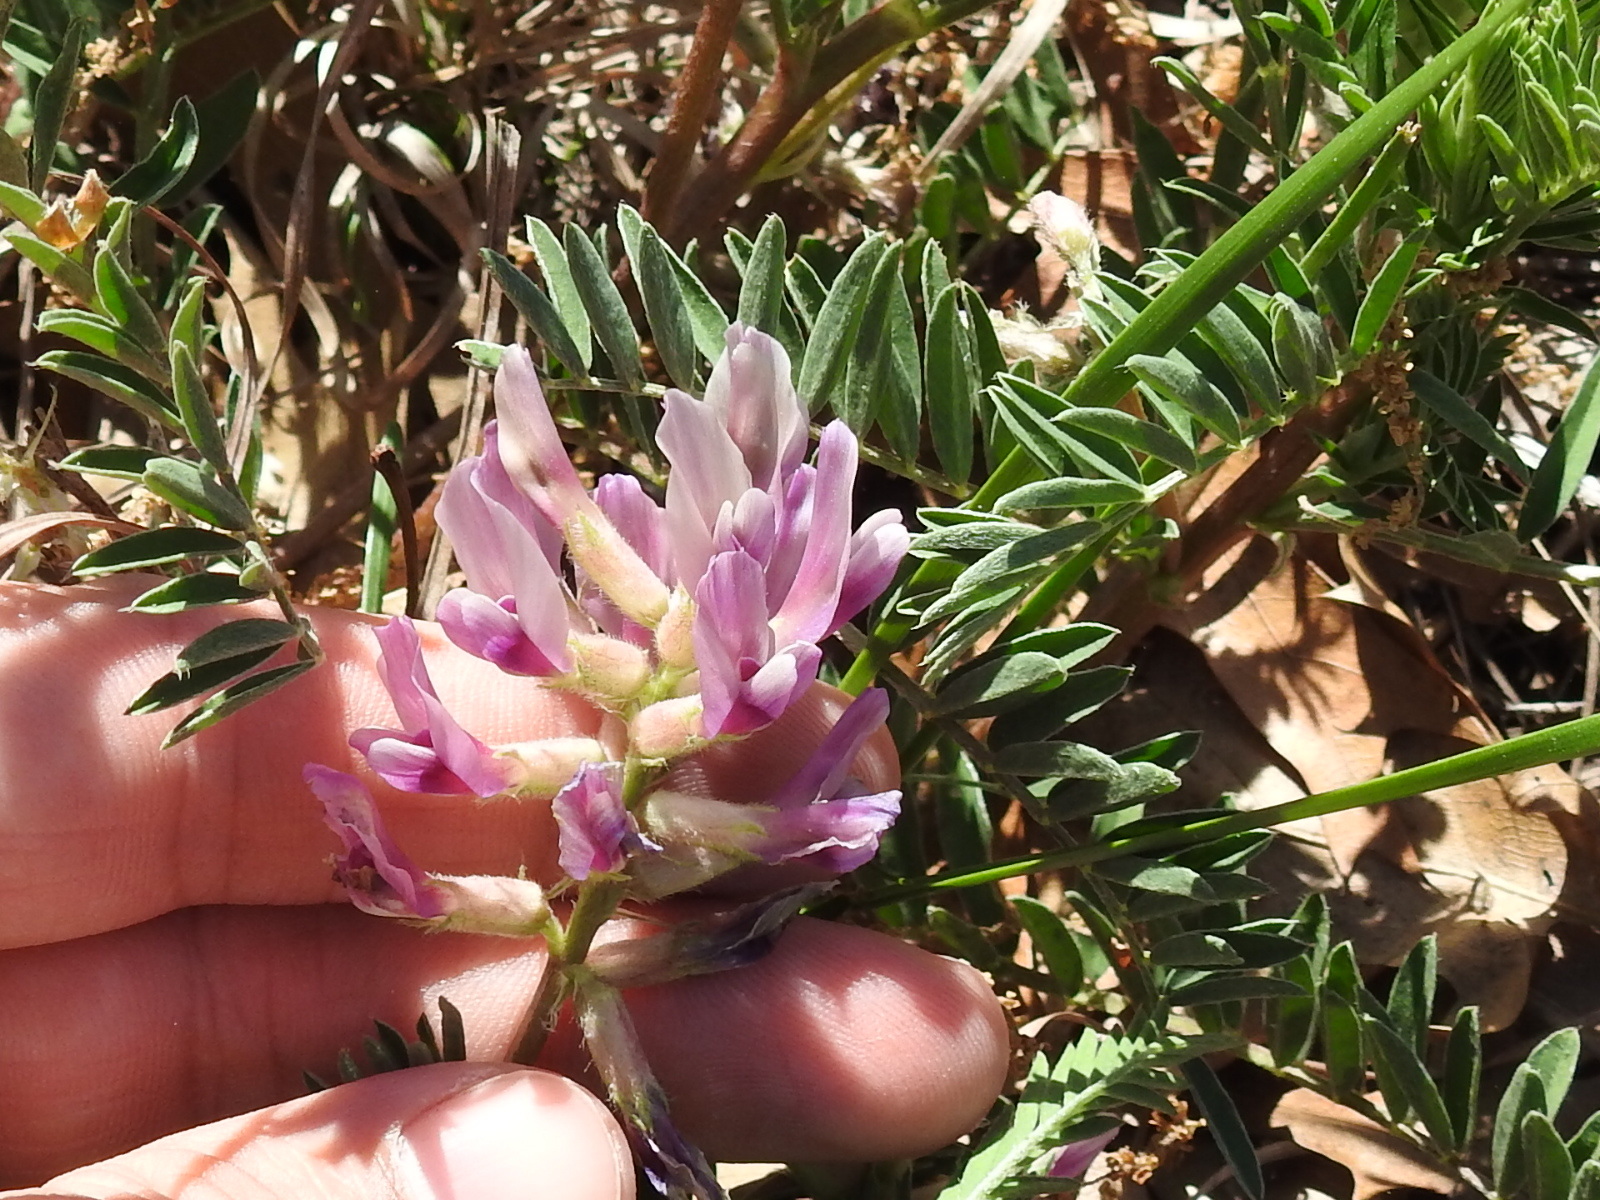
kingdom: Plantae
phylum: Tracheophyta
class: Magnoliopsida
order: Fabales
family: Fabaceae
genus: Astragalus
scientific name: Astragalus crassicarpus
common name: Ground-plum milk-vetch
